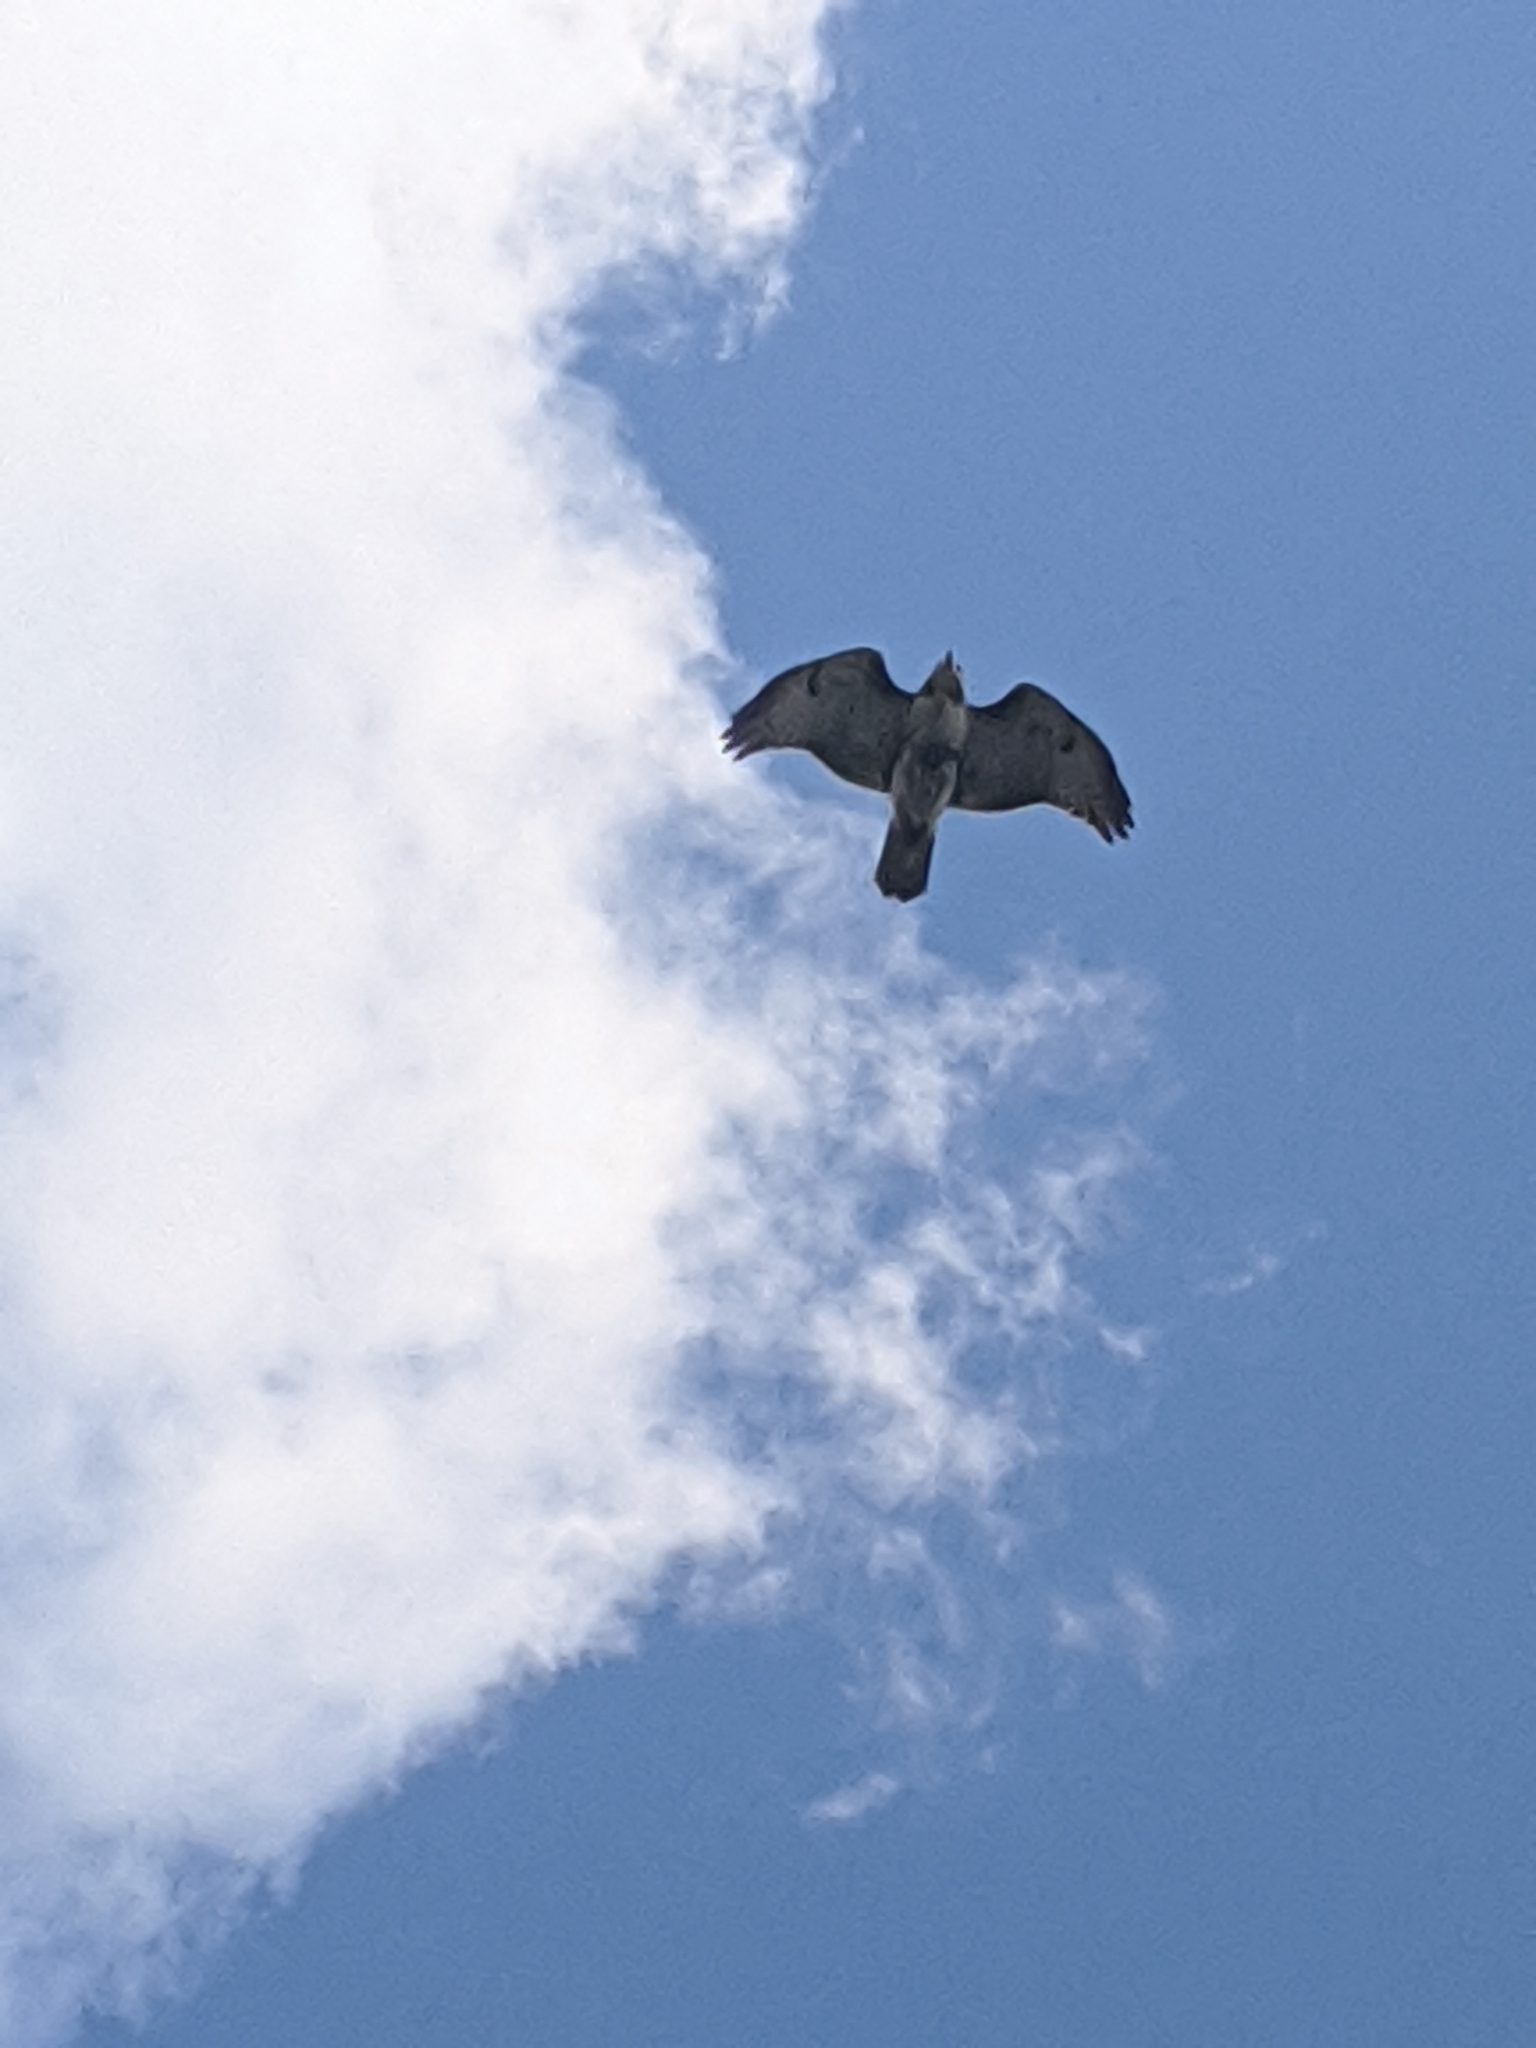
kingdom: Animalia
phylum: Chordata
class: Aves
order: Accipitriformes
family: Accipitridae
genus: Buteo
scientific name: Buteo jamaicensis
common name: Red-tailed hawk
